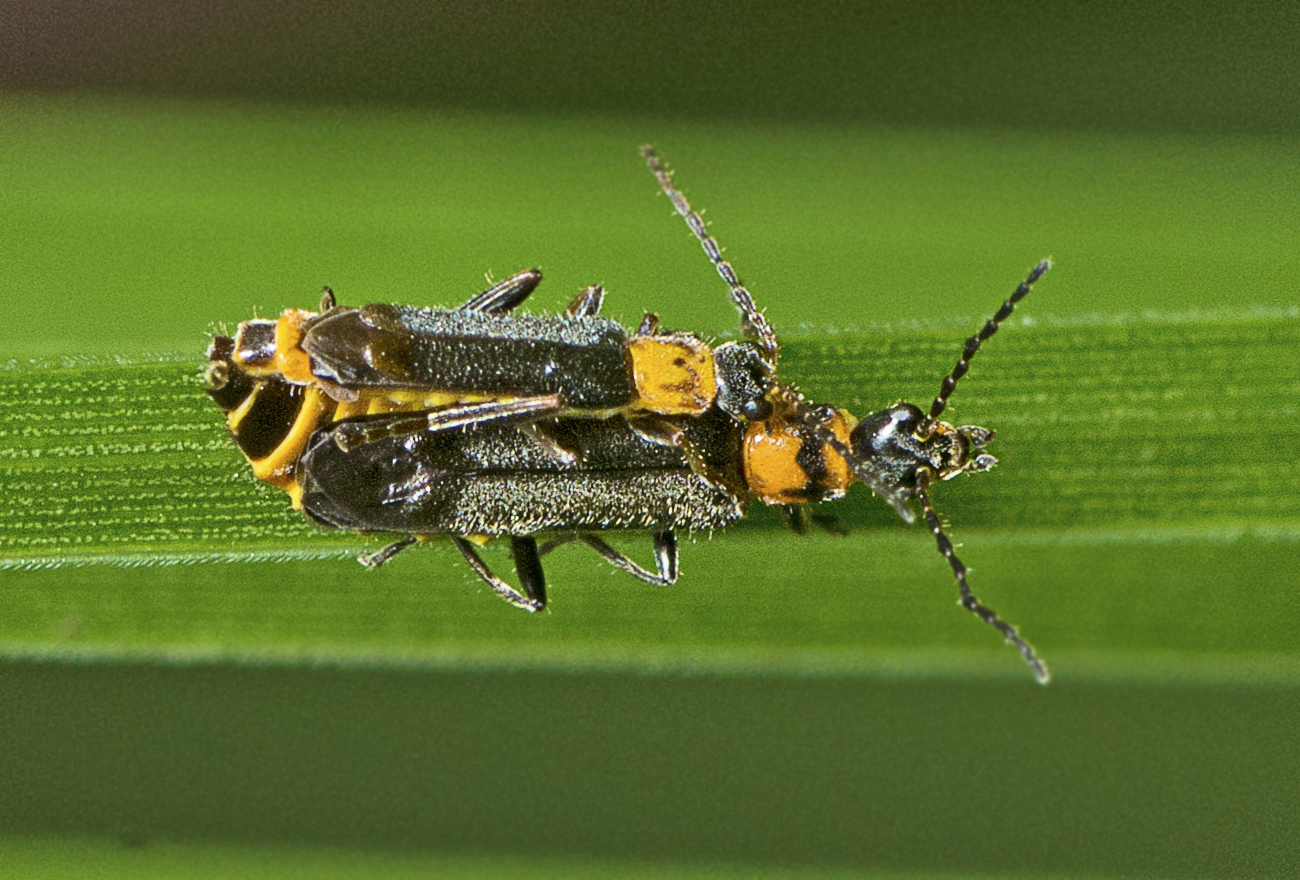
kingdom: Animalia
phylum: Arthropoda
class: Insecta
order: Coleoptera
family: Cantharidae
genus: Chauliognathus
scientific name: Chauliognathus
